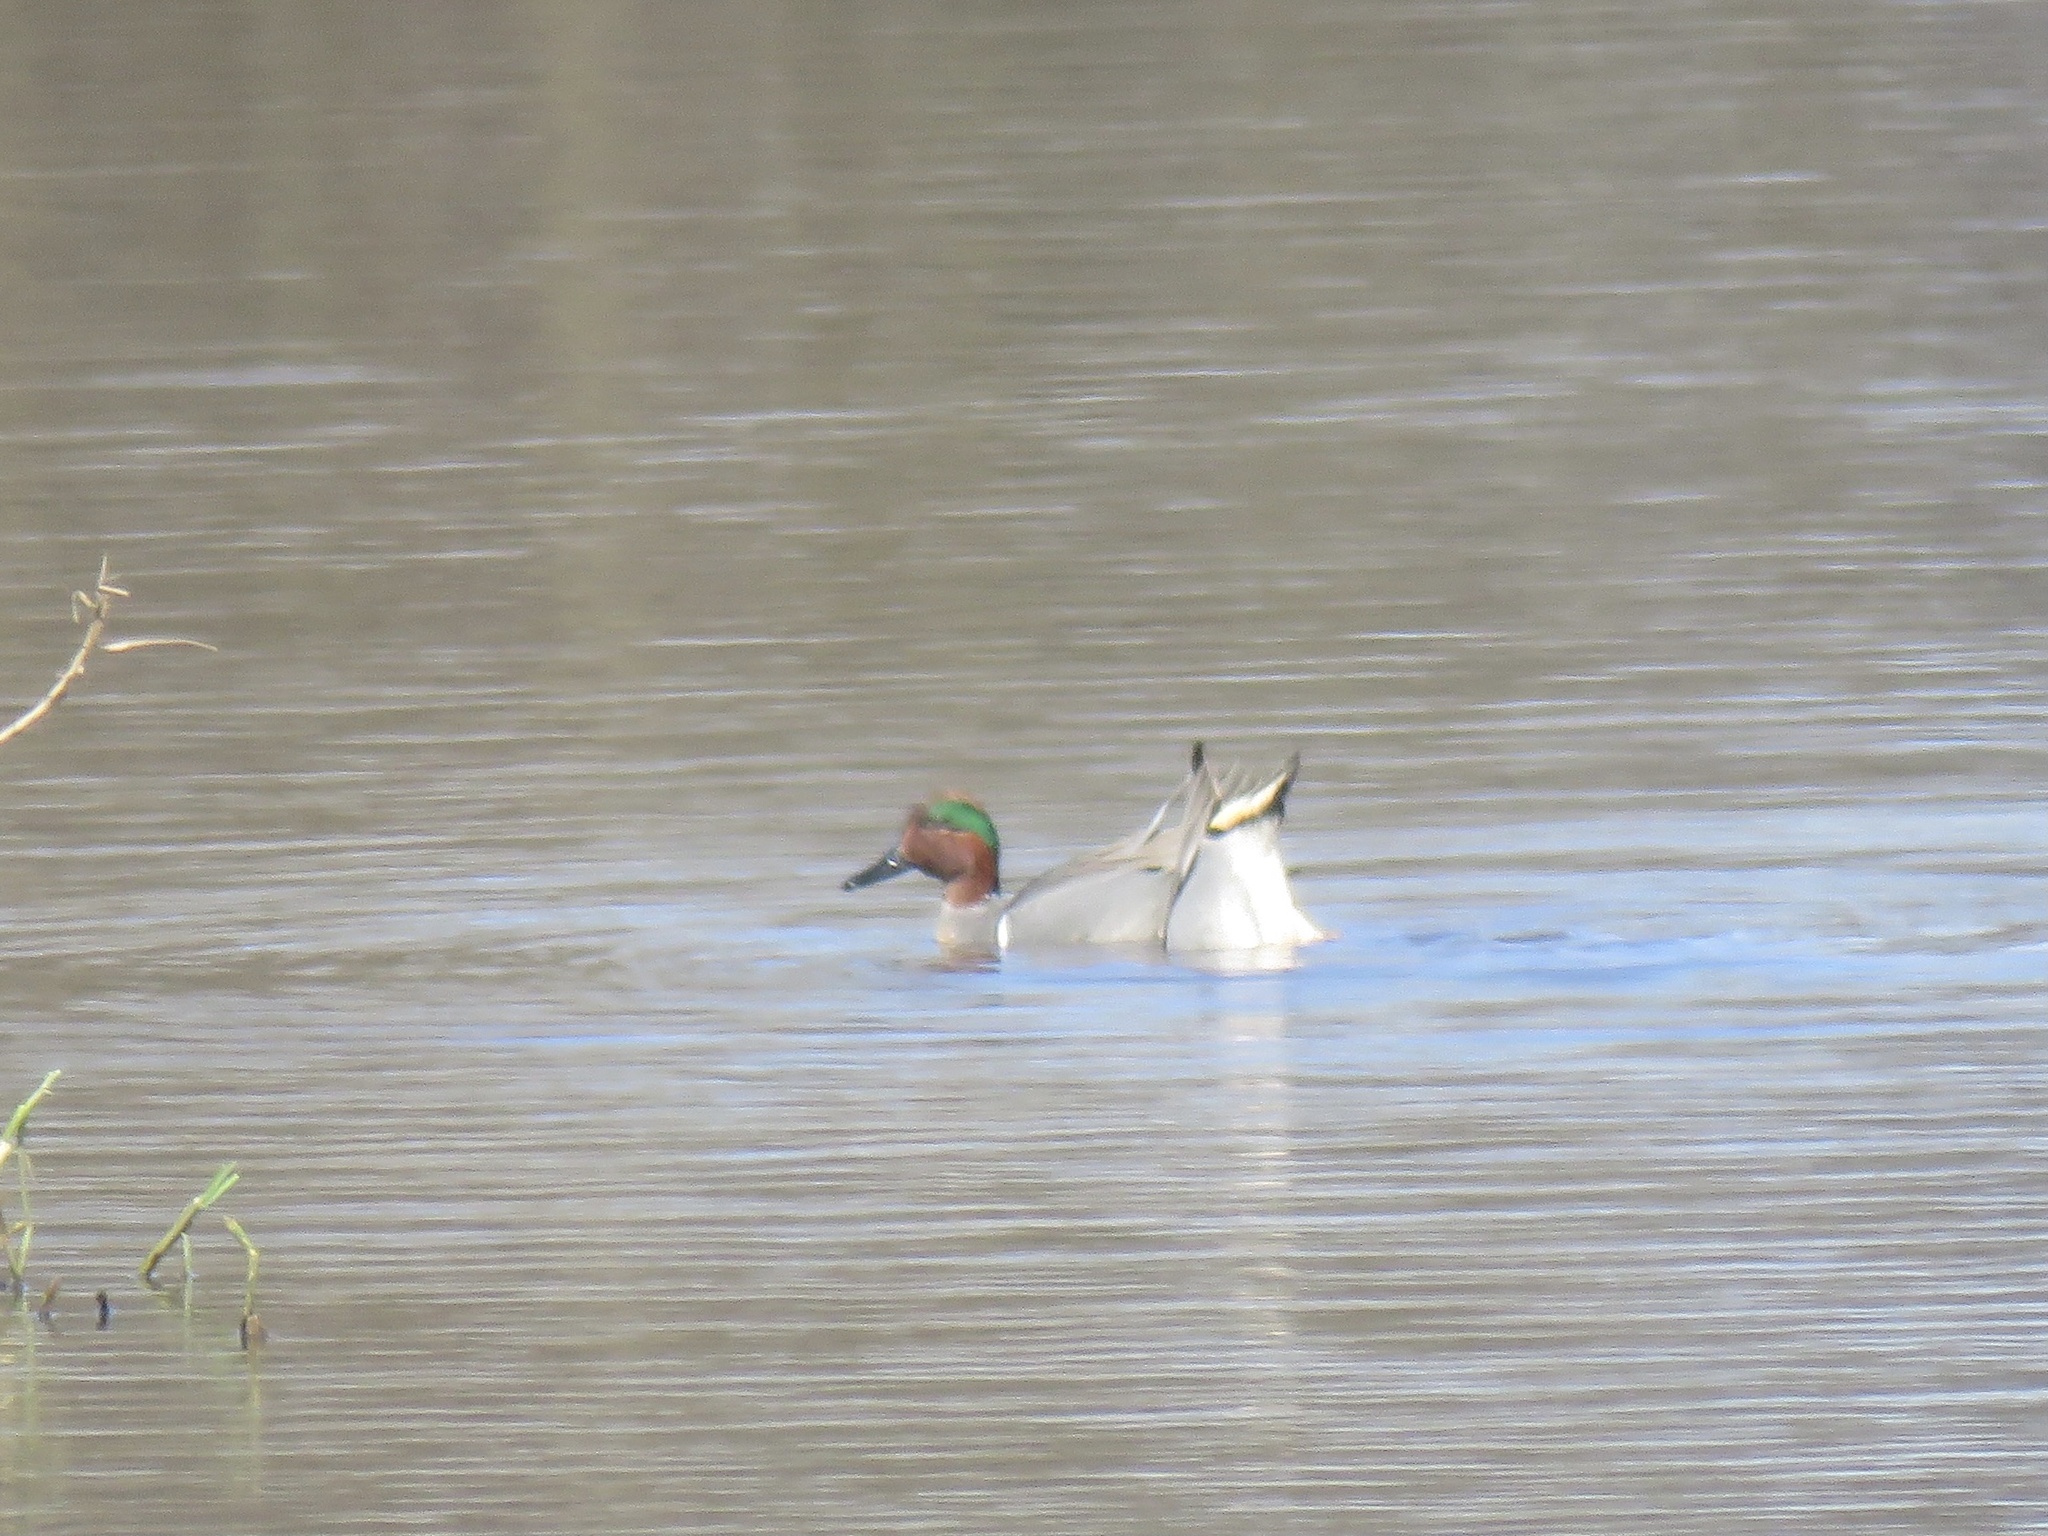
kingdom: Animalia
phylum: Chordata
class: Aves
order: Anseriformes
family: Anatidae
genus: Anas
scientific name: Anas crecca
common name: Eurasian teal
